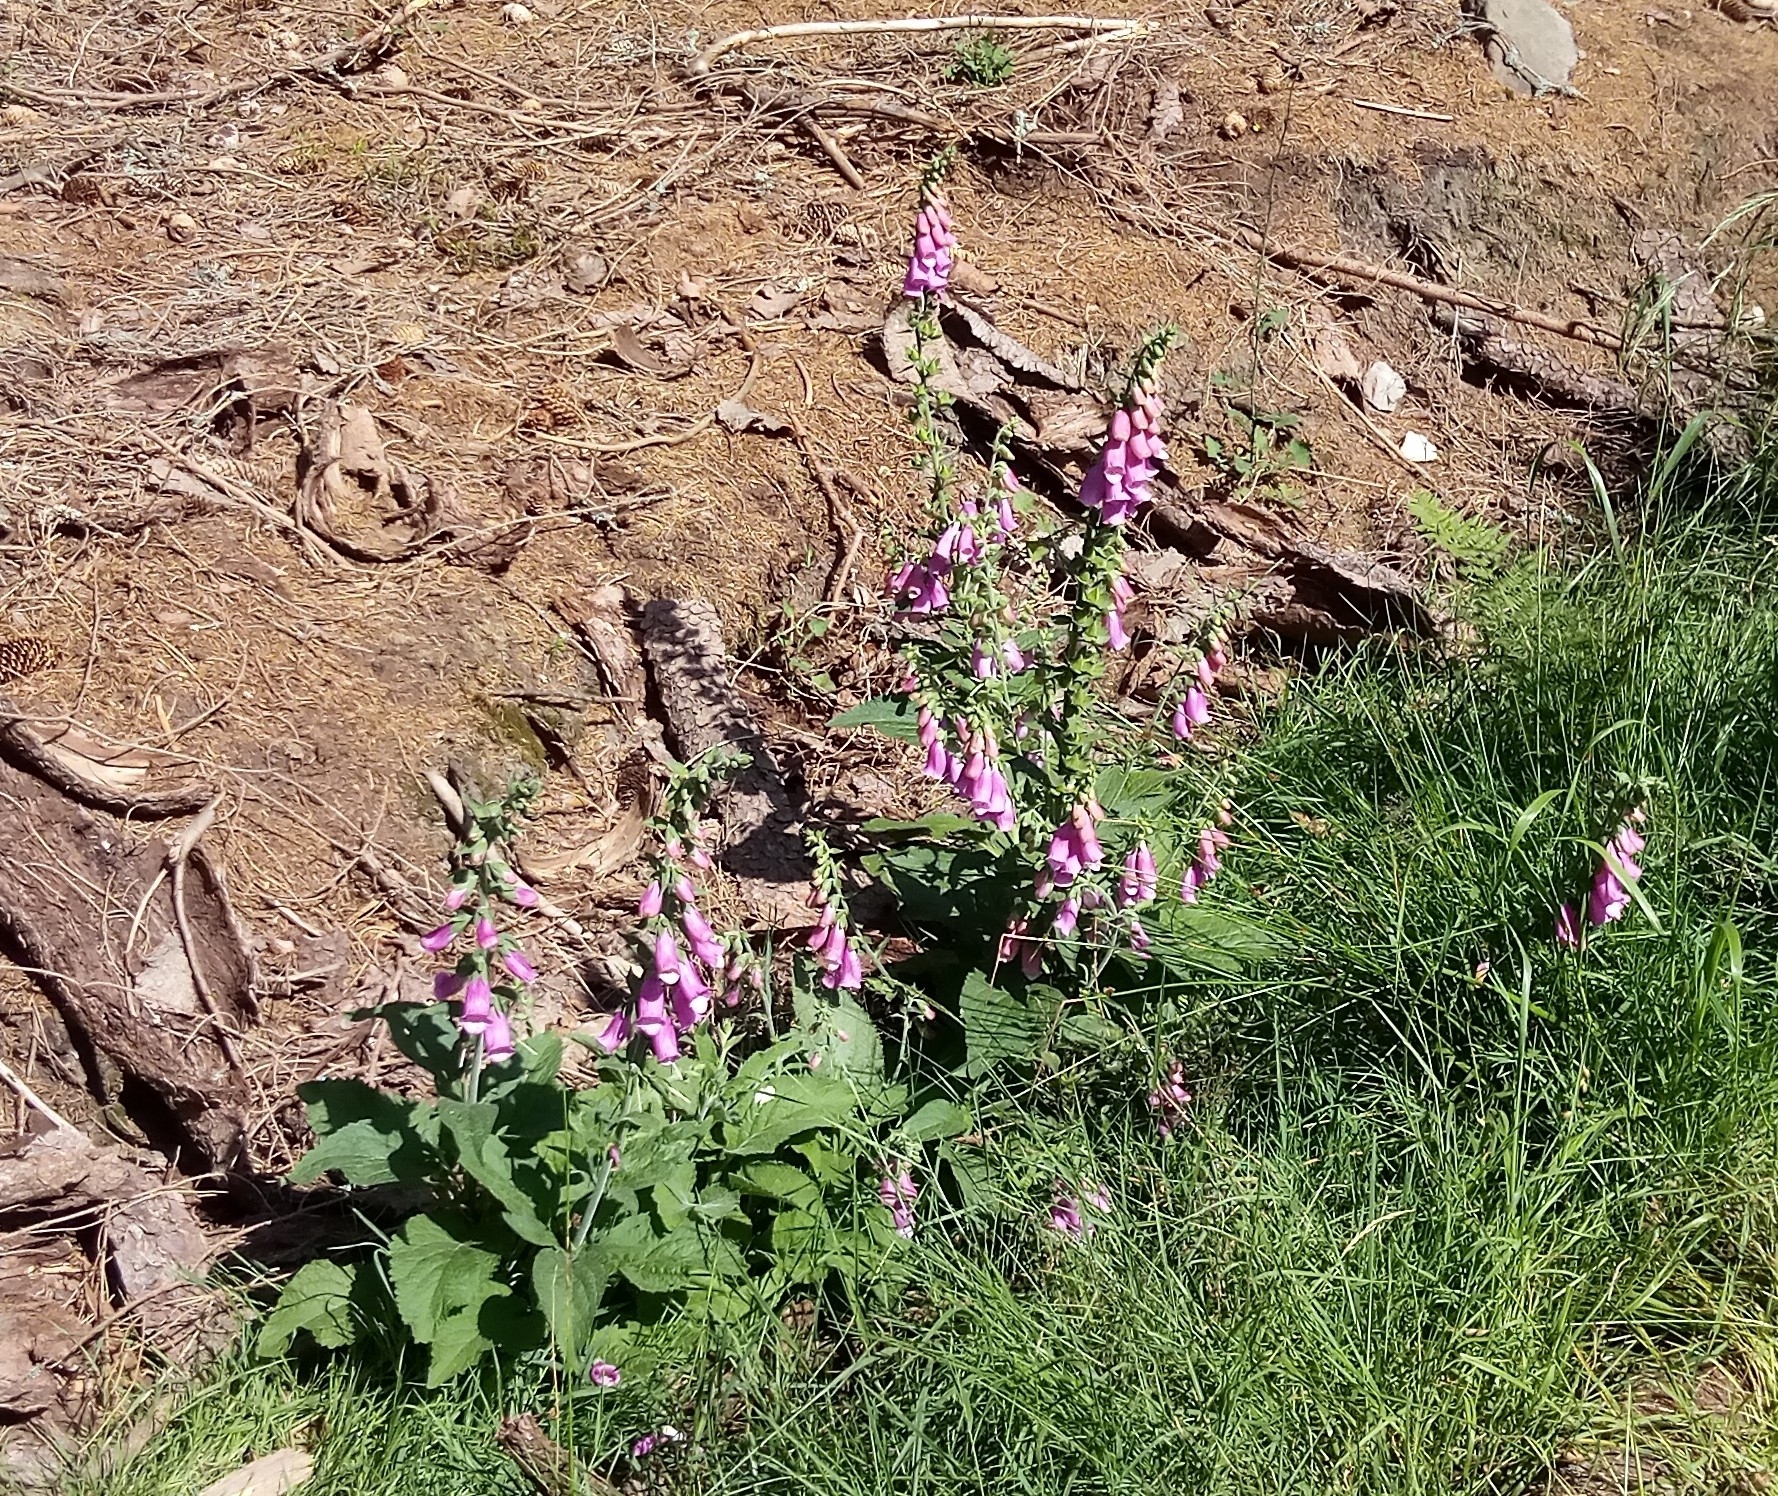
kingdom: Plantae
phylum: Tracheophyta
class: Magnoliopsida
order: Lamiales
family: Plantaginaceae
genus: Digitalis
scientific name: Digitalis purpurea
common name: Foxglove
